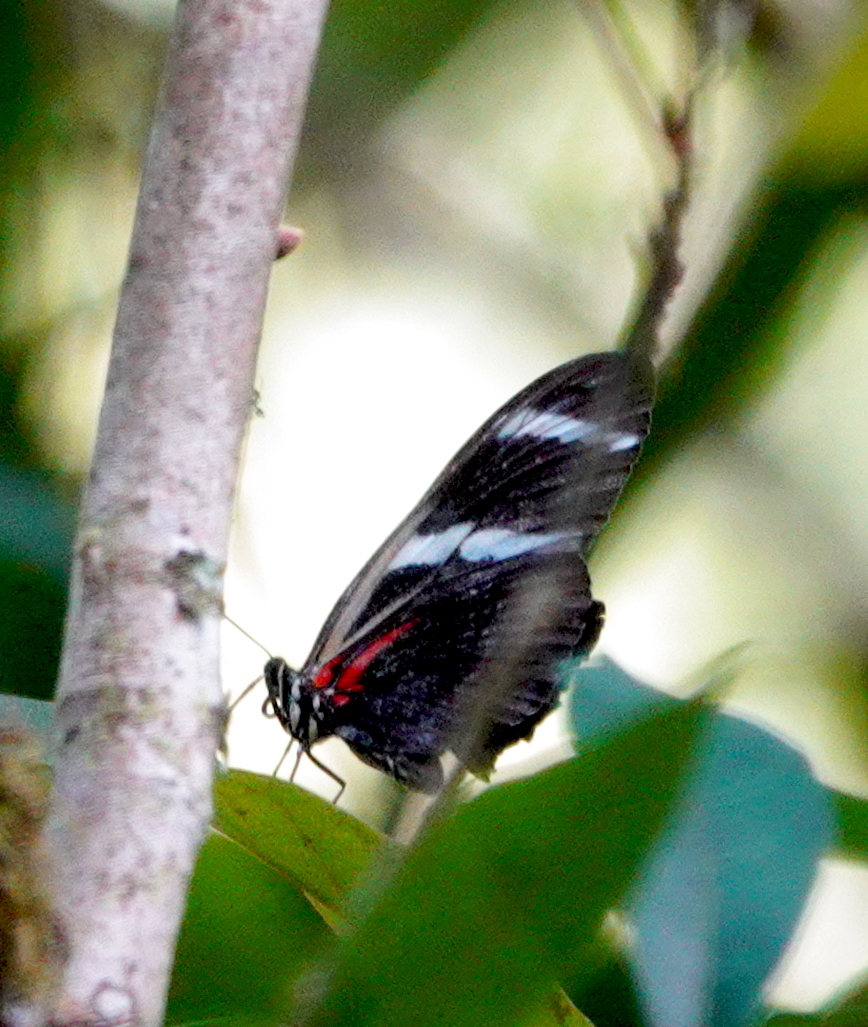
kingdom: Animalia
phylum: Arthropoda
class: Insecta
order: Lepidoptera
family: Nymphalidae
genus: Heliconius
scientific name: Heliconius antiochus
